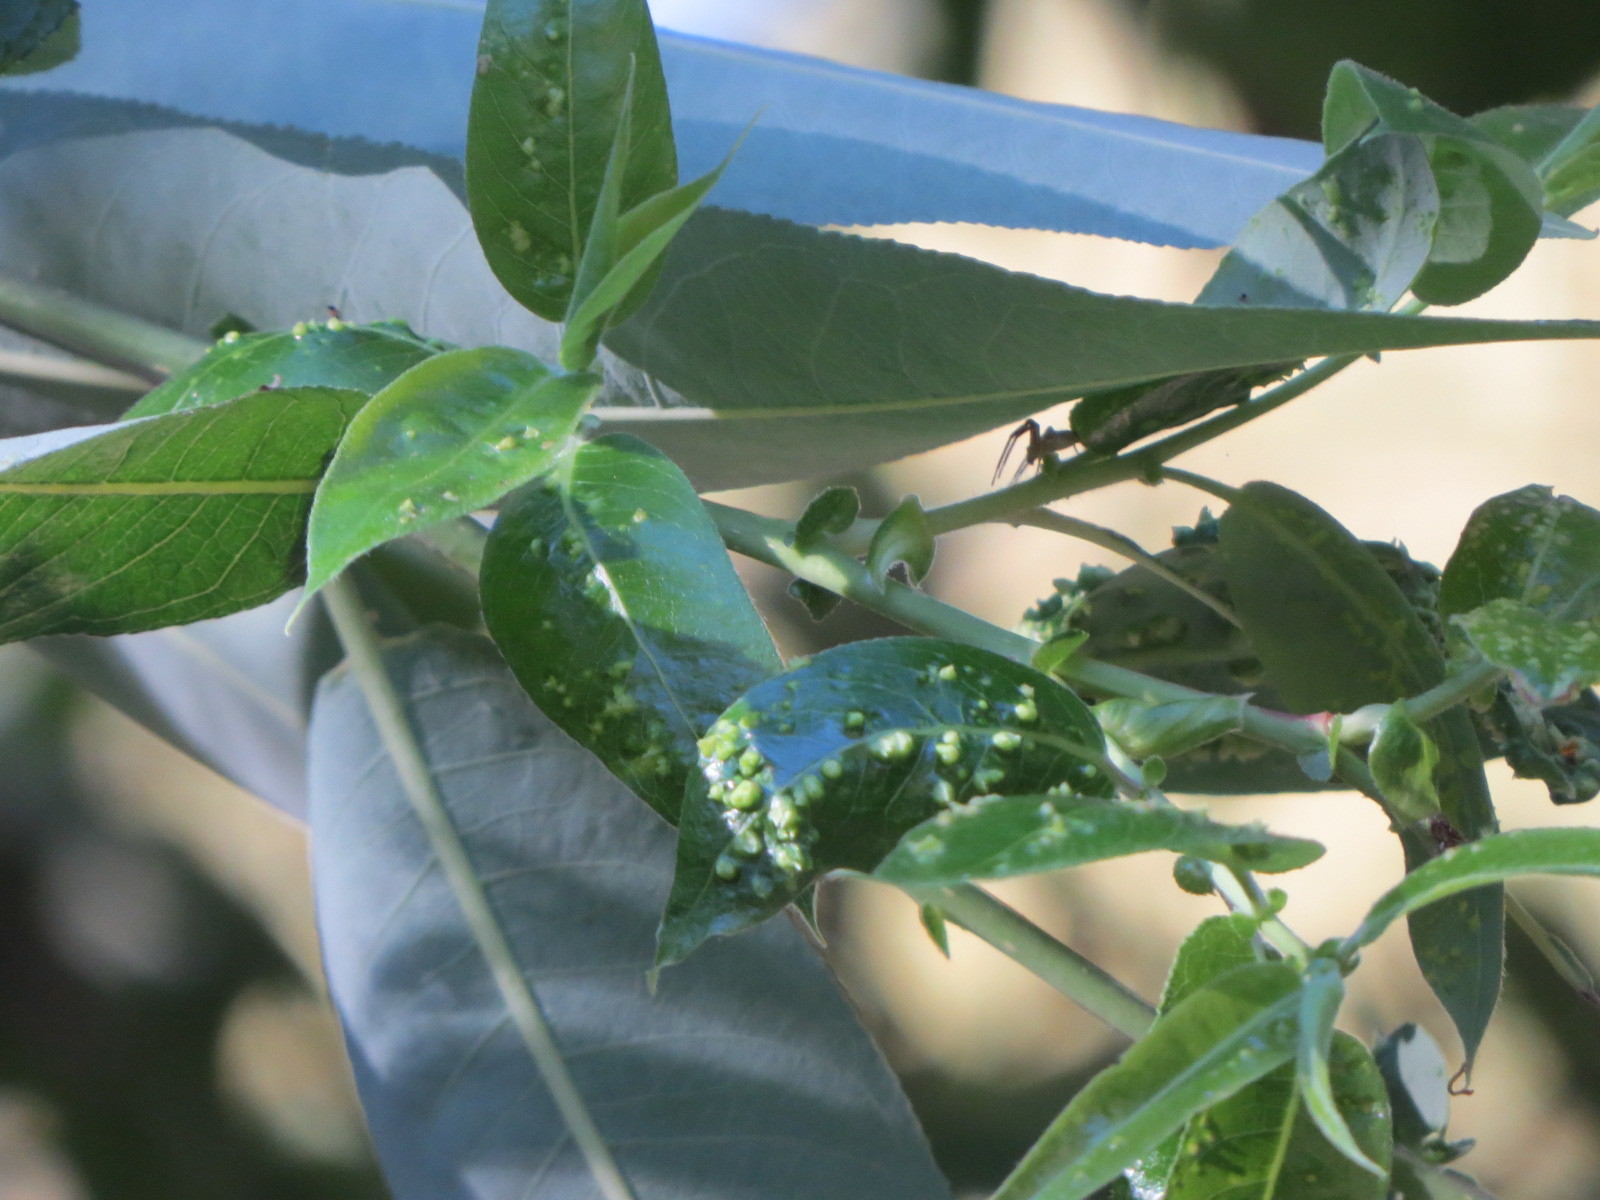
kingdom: Animalia
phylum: Arthropoda
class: Arachnida
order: Trombidiformes
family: Eriophyidae
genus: Aculus
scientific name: Aculus tetanothrix
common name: Willow bead gall mite
